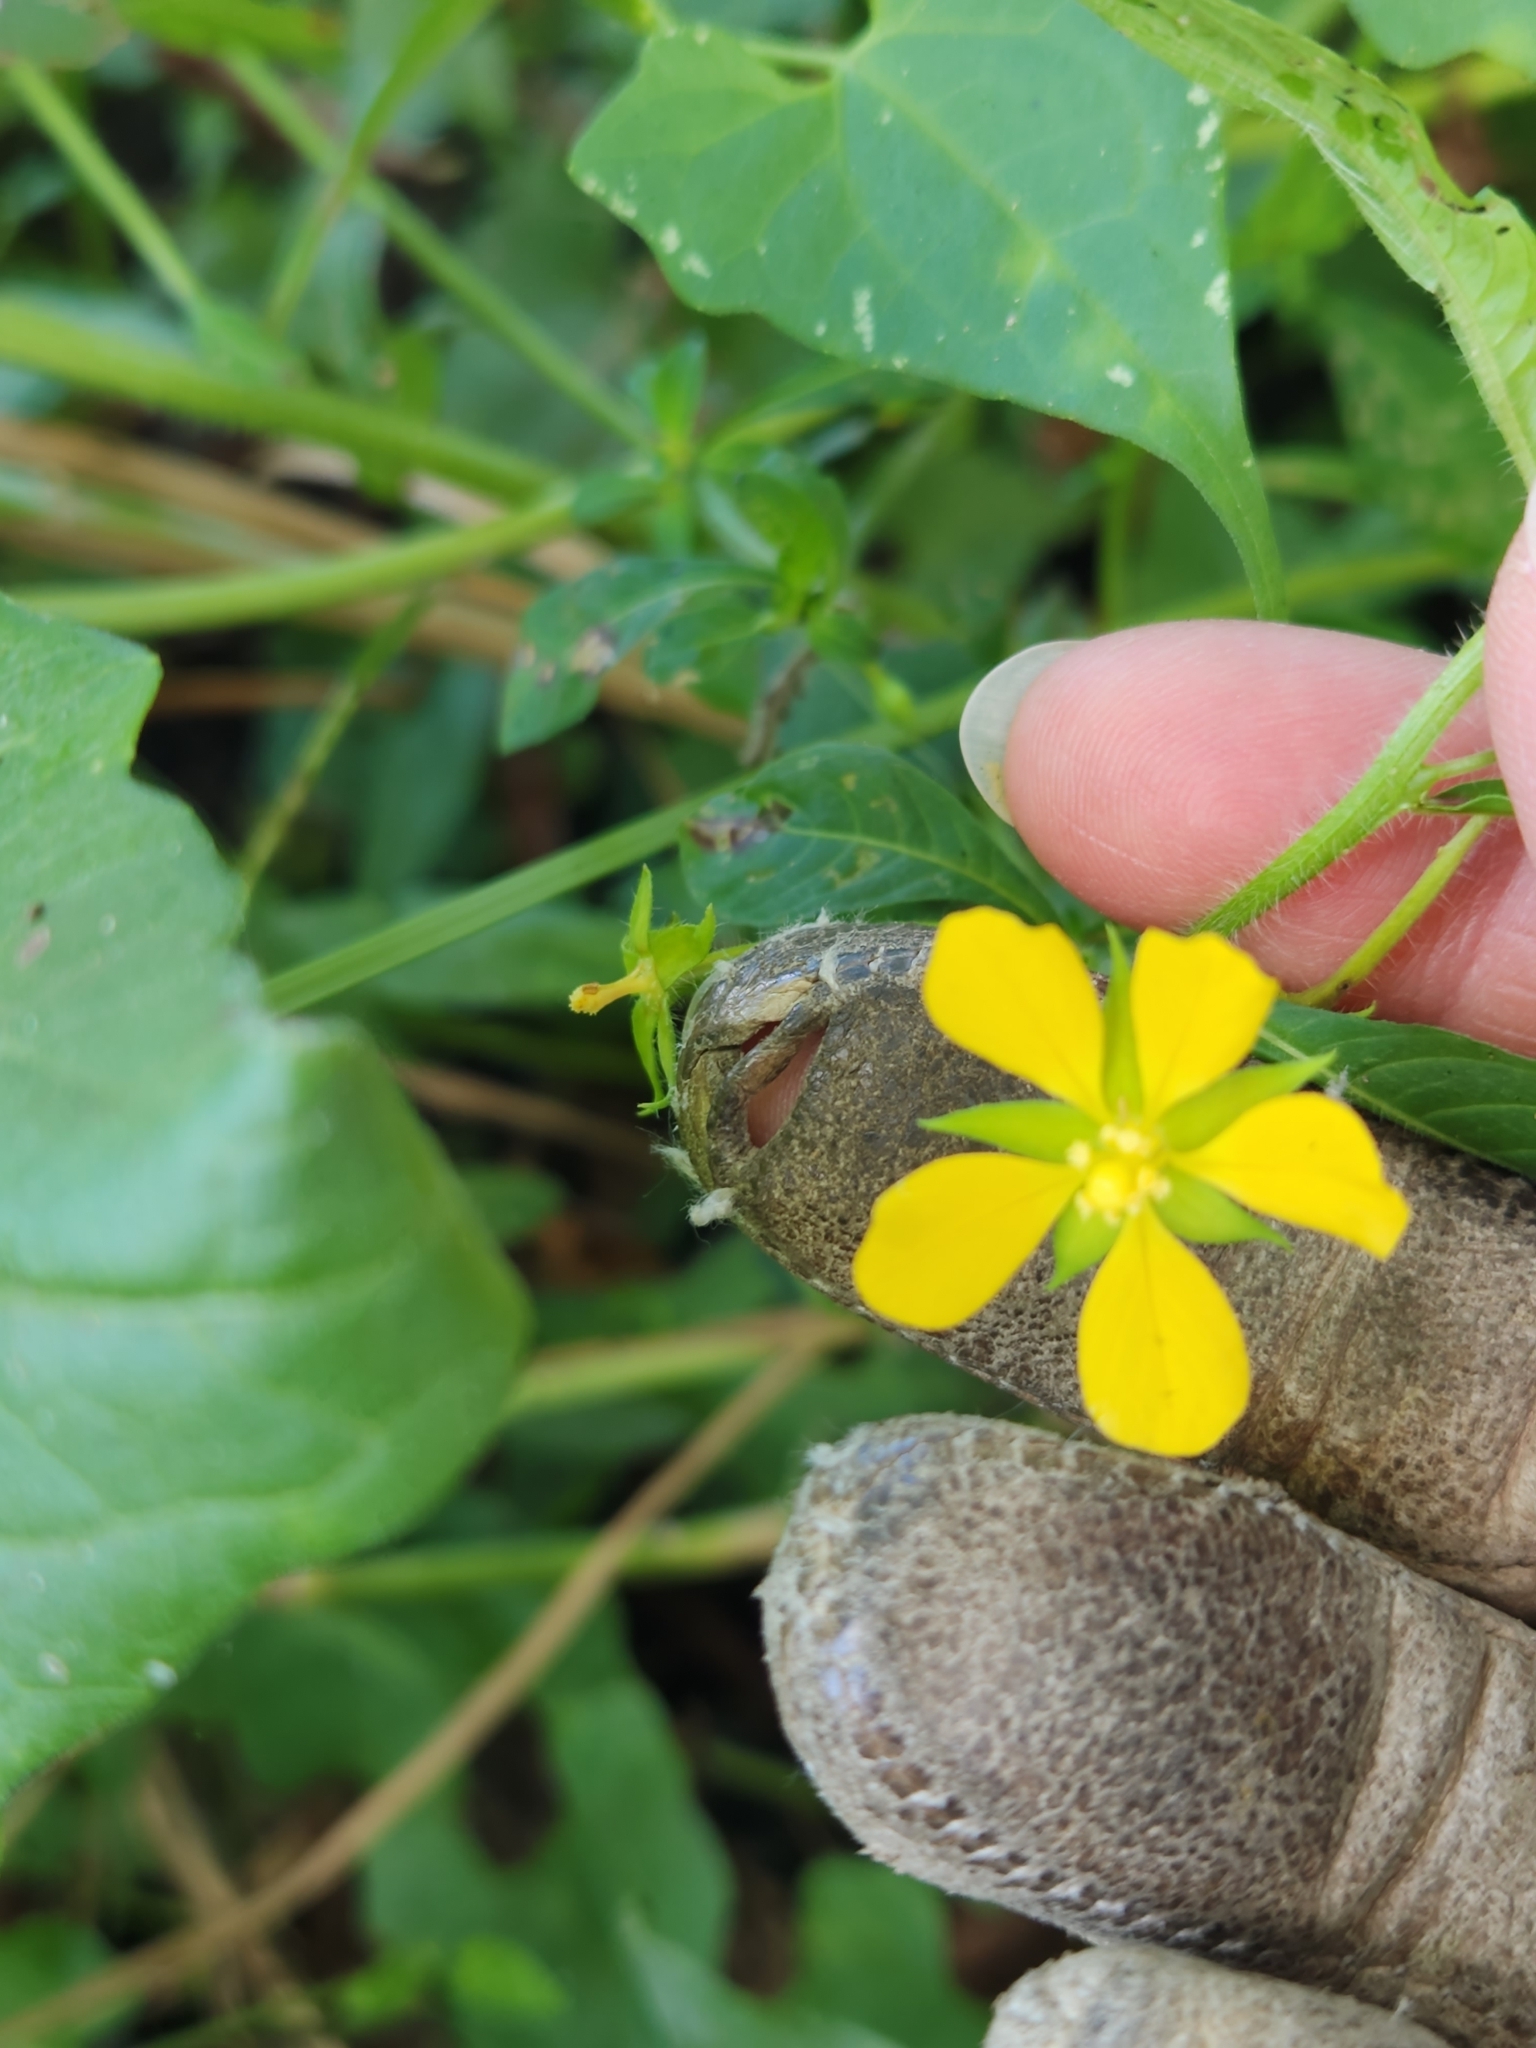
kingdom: Plantae
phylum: Tracheophyta
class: Magnoliopsida
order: Myrtales
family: Onagraceae
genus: Ludwigia
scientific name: Ludwigia leptocarpa
